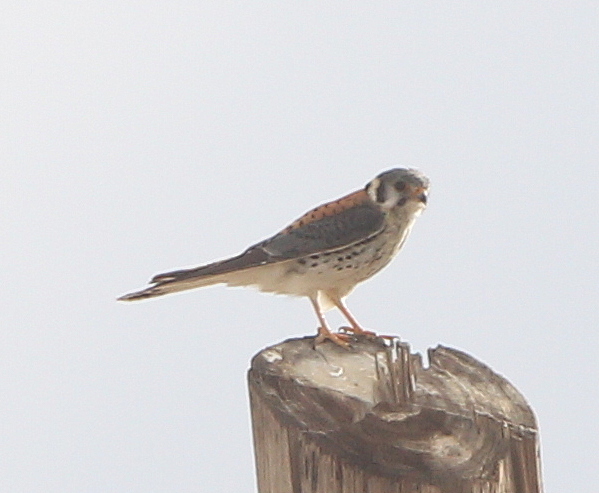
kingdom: Animalia
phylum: Chordata
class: Aves
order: Falconiformes
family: Falconidae
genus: Falco
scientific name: Falco sparverius
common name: American kestrel
